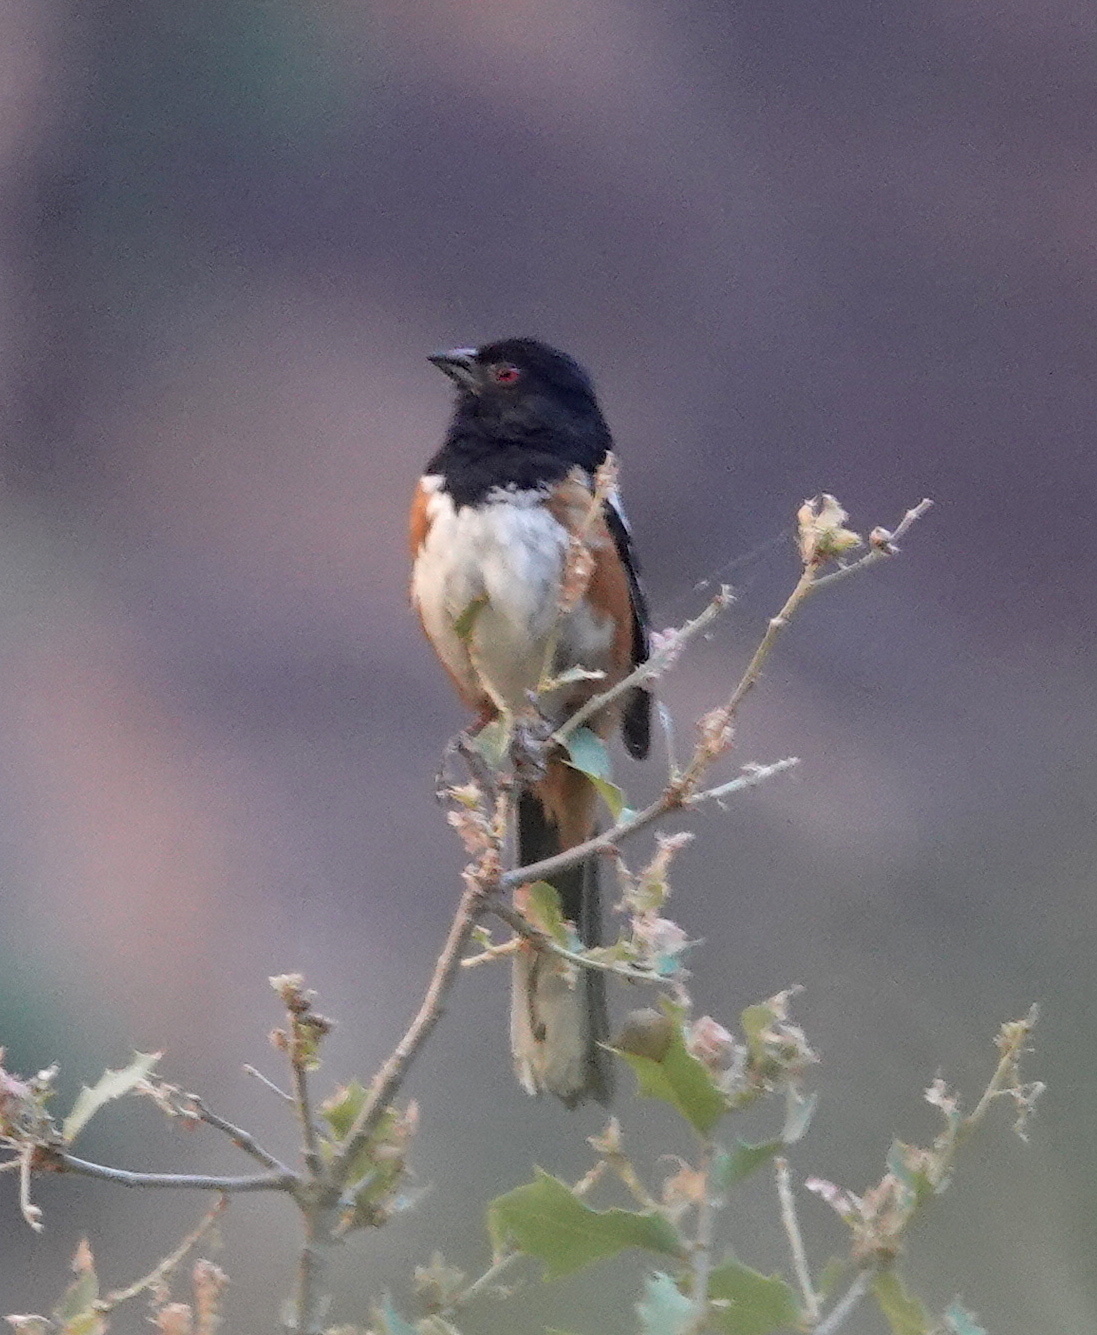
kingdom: Animalia
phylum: Chordata
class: Aves
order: Passeriformes
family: Passerellidae
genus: Pipilo
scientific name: Pipilo maculatus
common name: Spotted towhee
